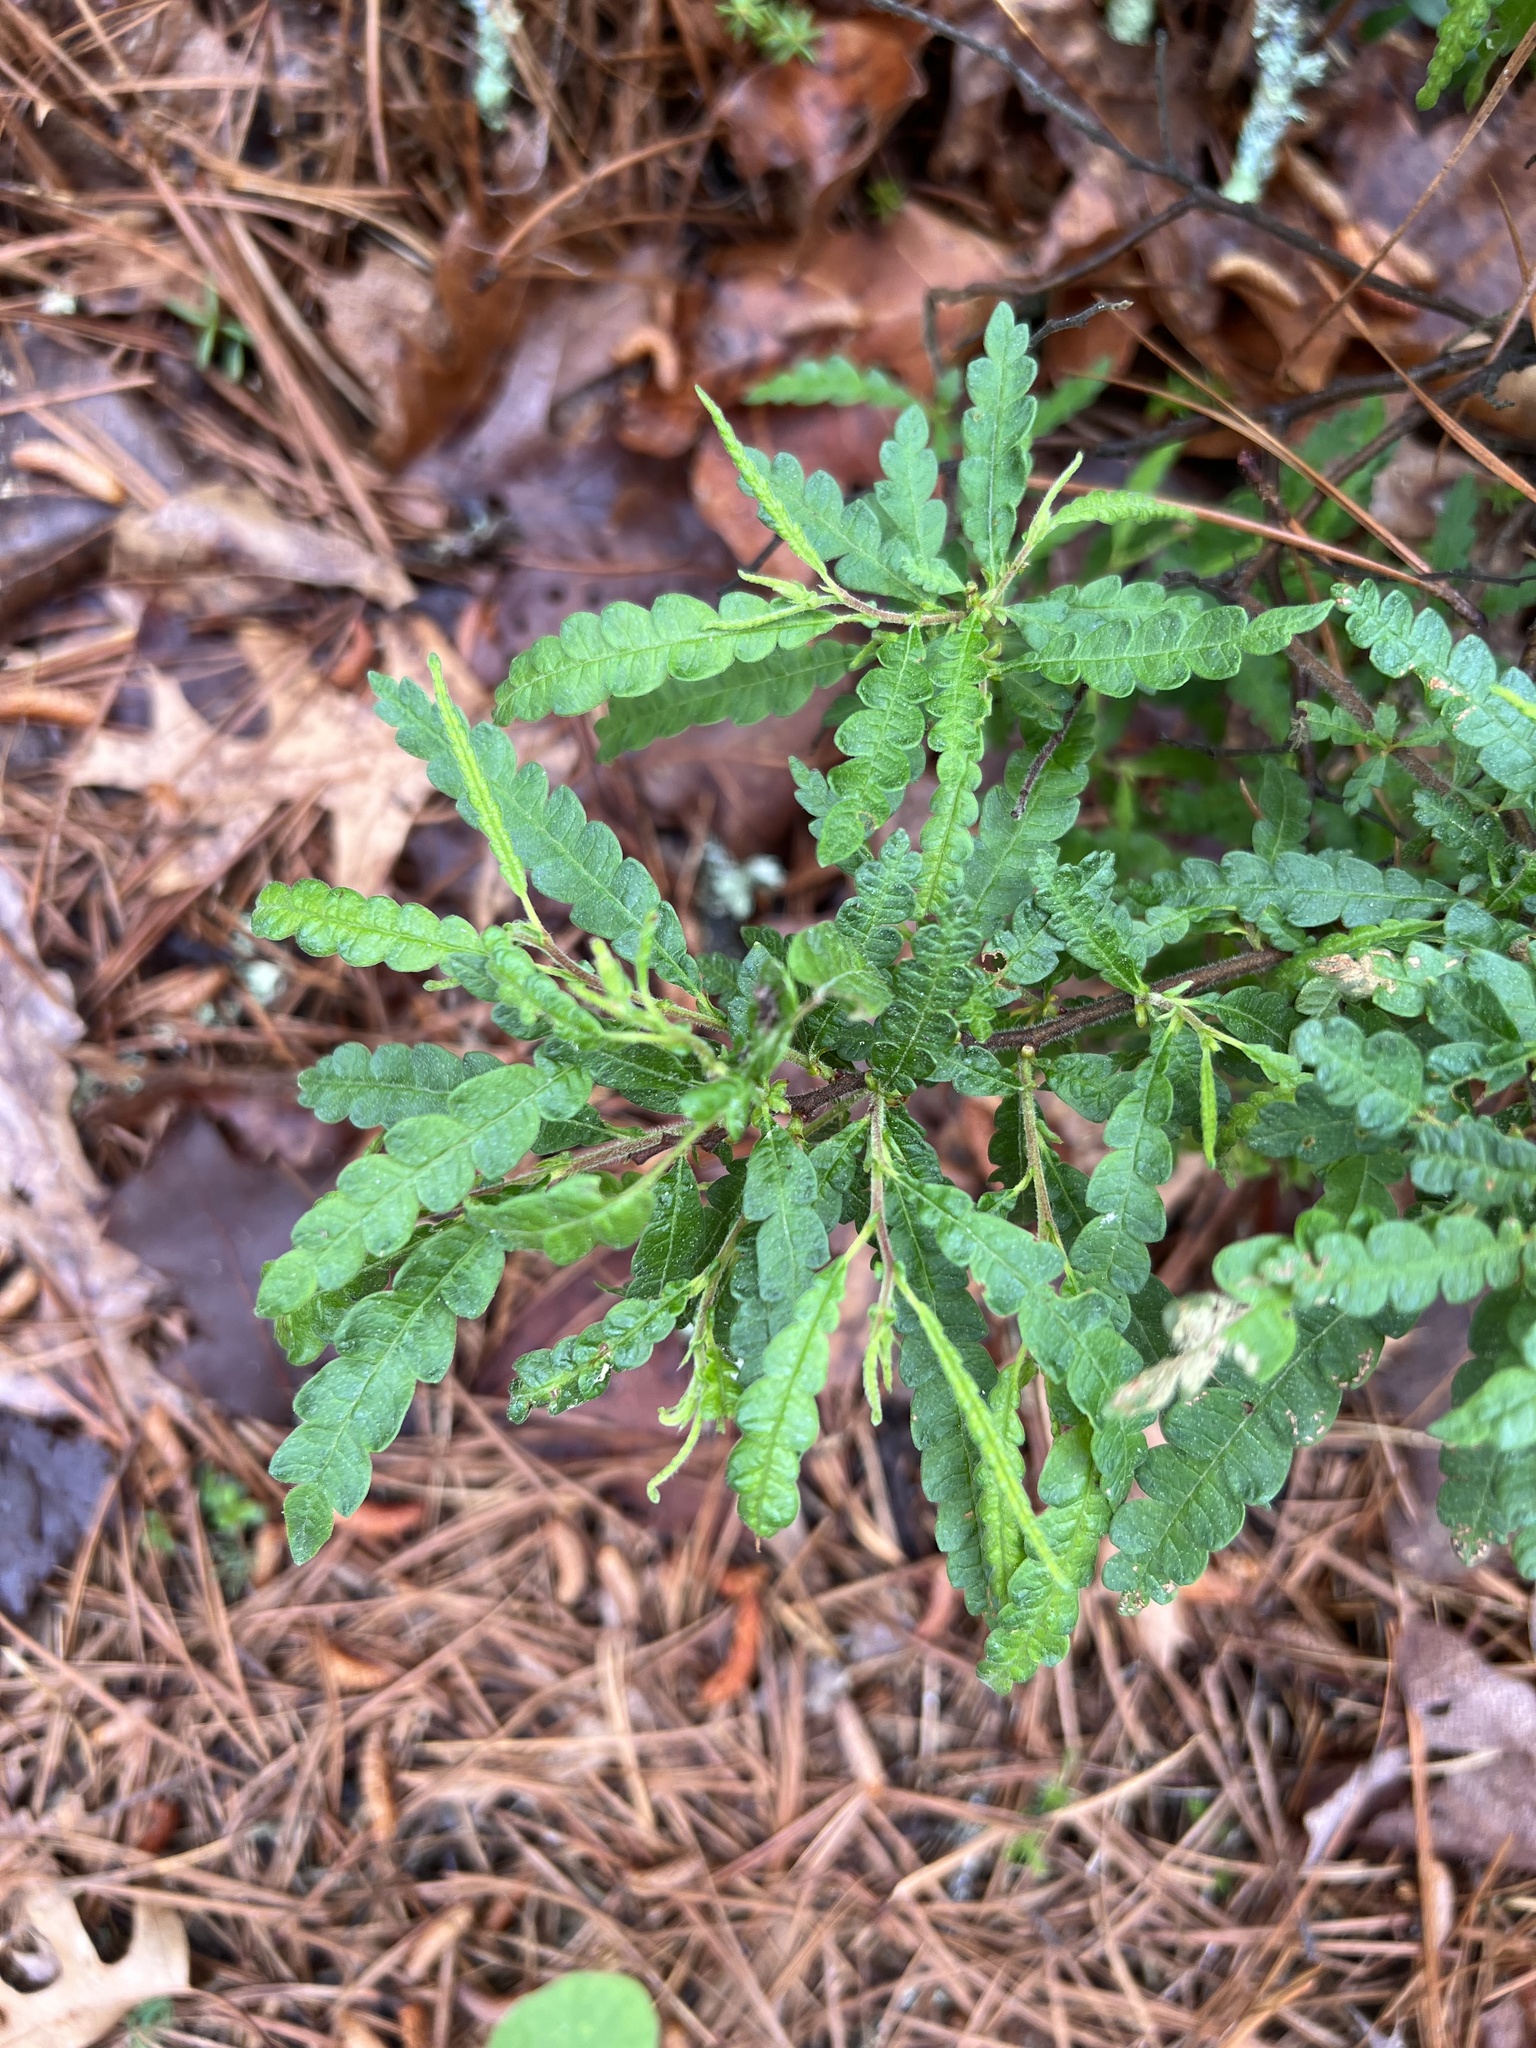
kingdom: Plantae
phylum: Tracheophyta
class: Magnoliopsida
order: Fagales
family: Myricaceae
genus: Comptonia
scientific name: Comptonia peregrina
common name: Sweet-fern
